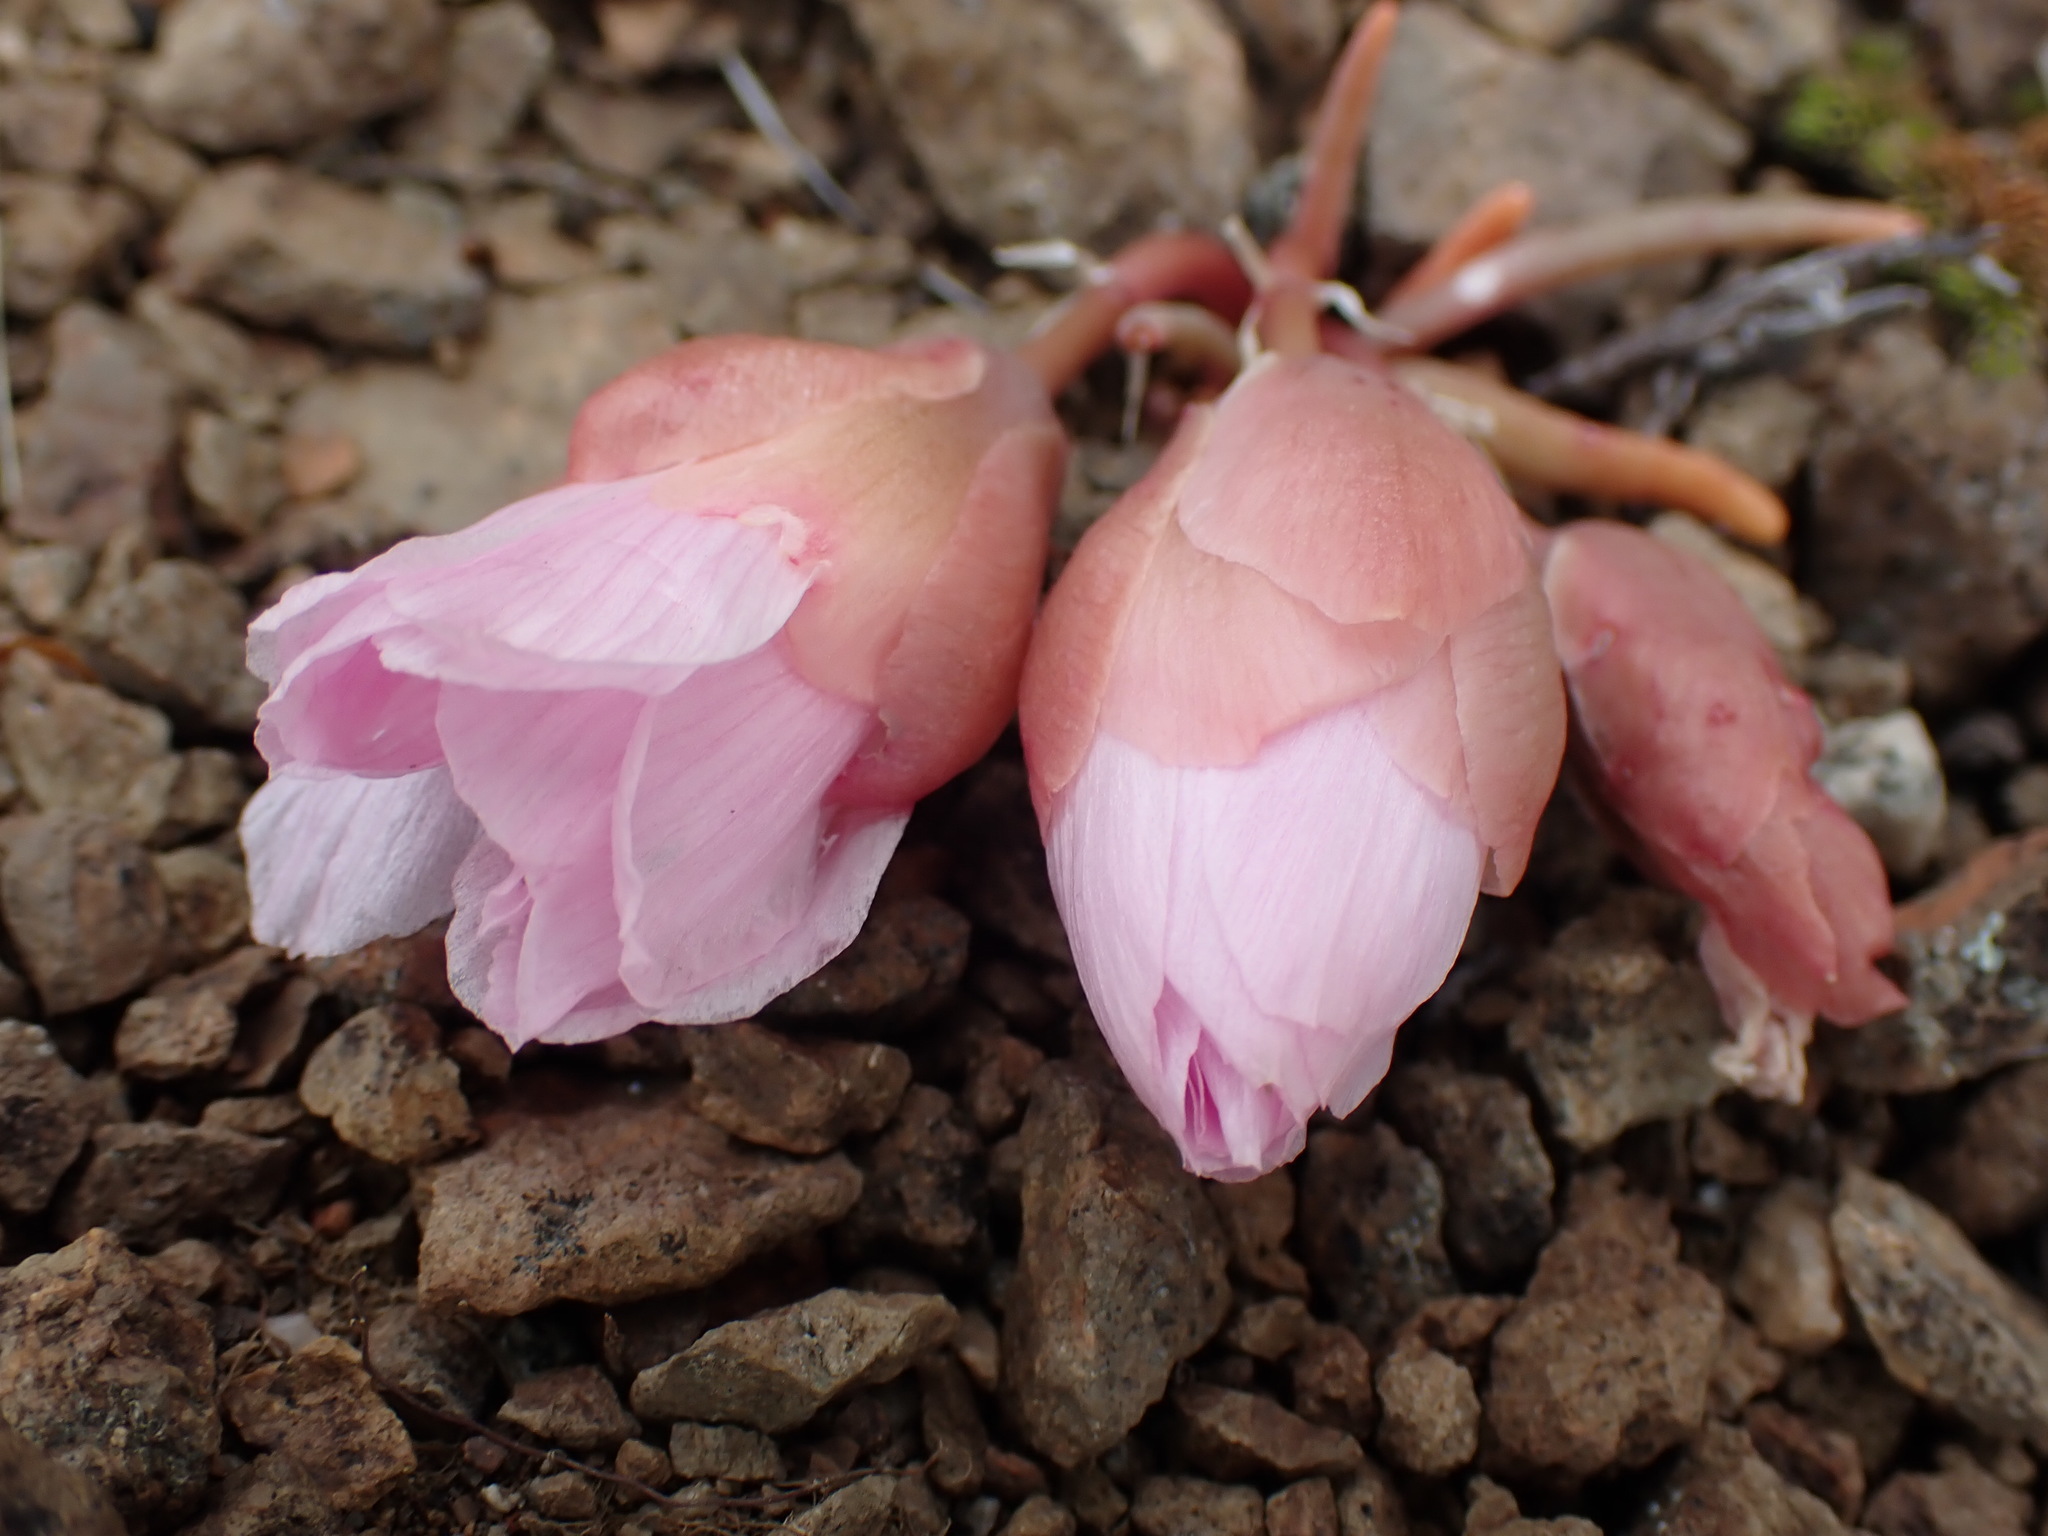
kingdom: Plantae
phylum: Tracheophyta
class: Magnoliopsida
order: Caryophyllales
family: Montiaceae
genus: Lewisia
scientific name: Lewisia rediviva
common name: Bitter-root
